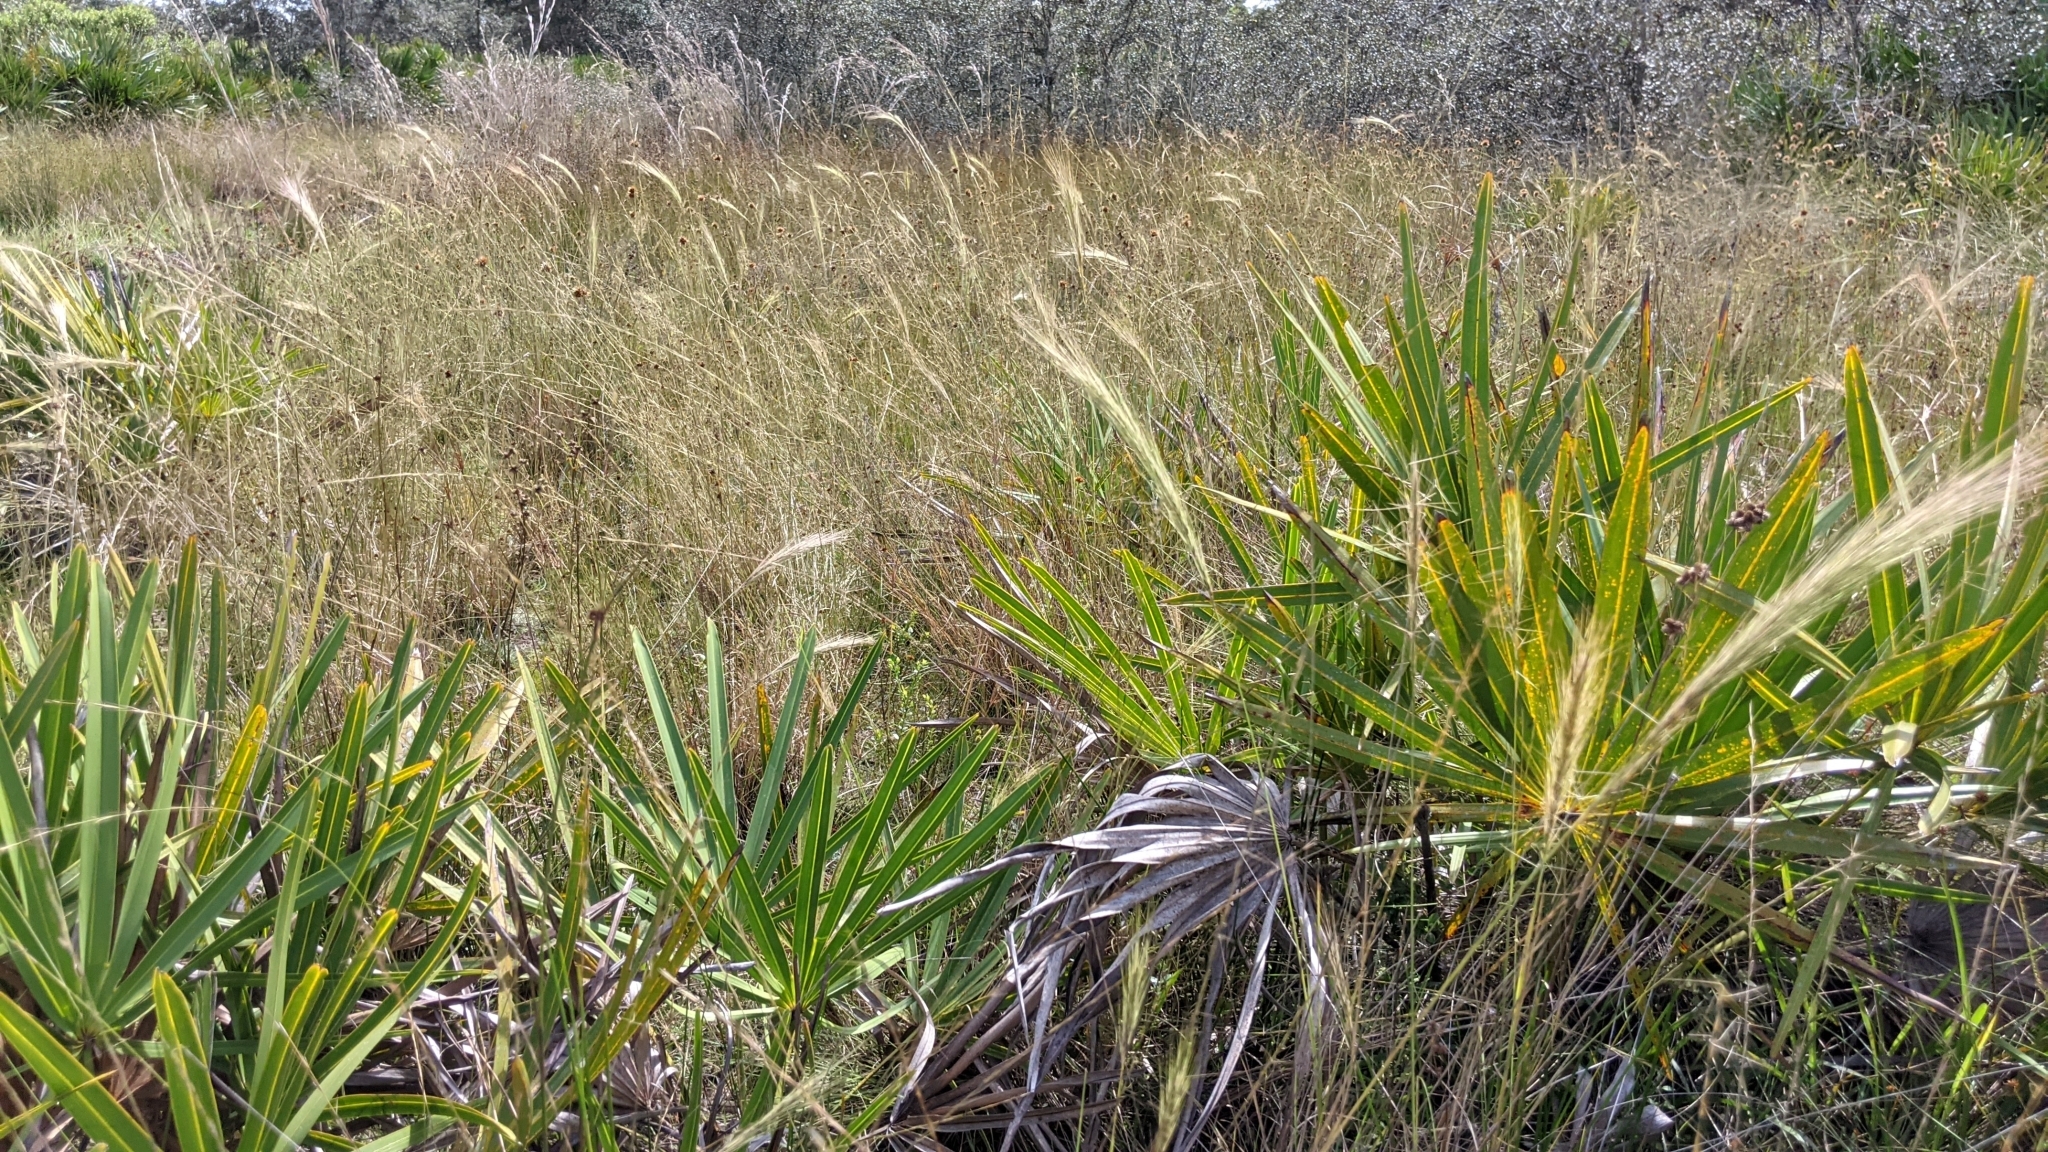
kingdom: Plantae
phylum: Tracheophyta
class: Liliopsida
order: Poales
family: Poaceae
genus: Aristida
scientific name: Aristida spiciformis
